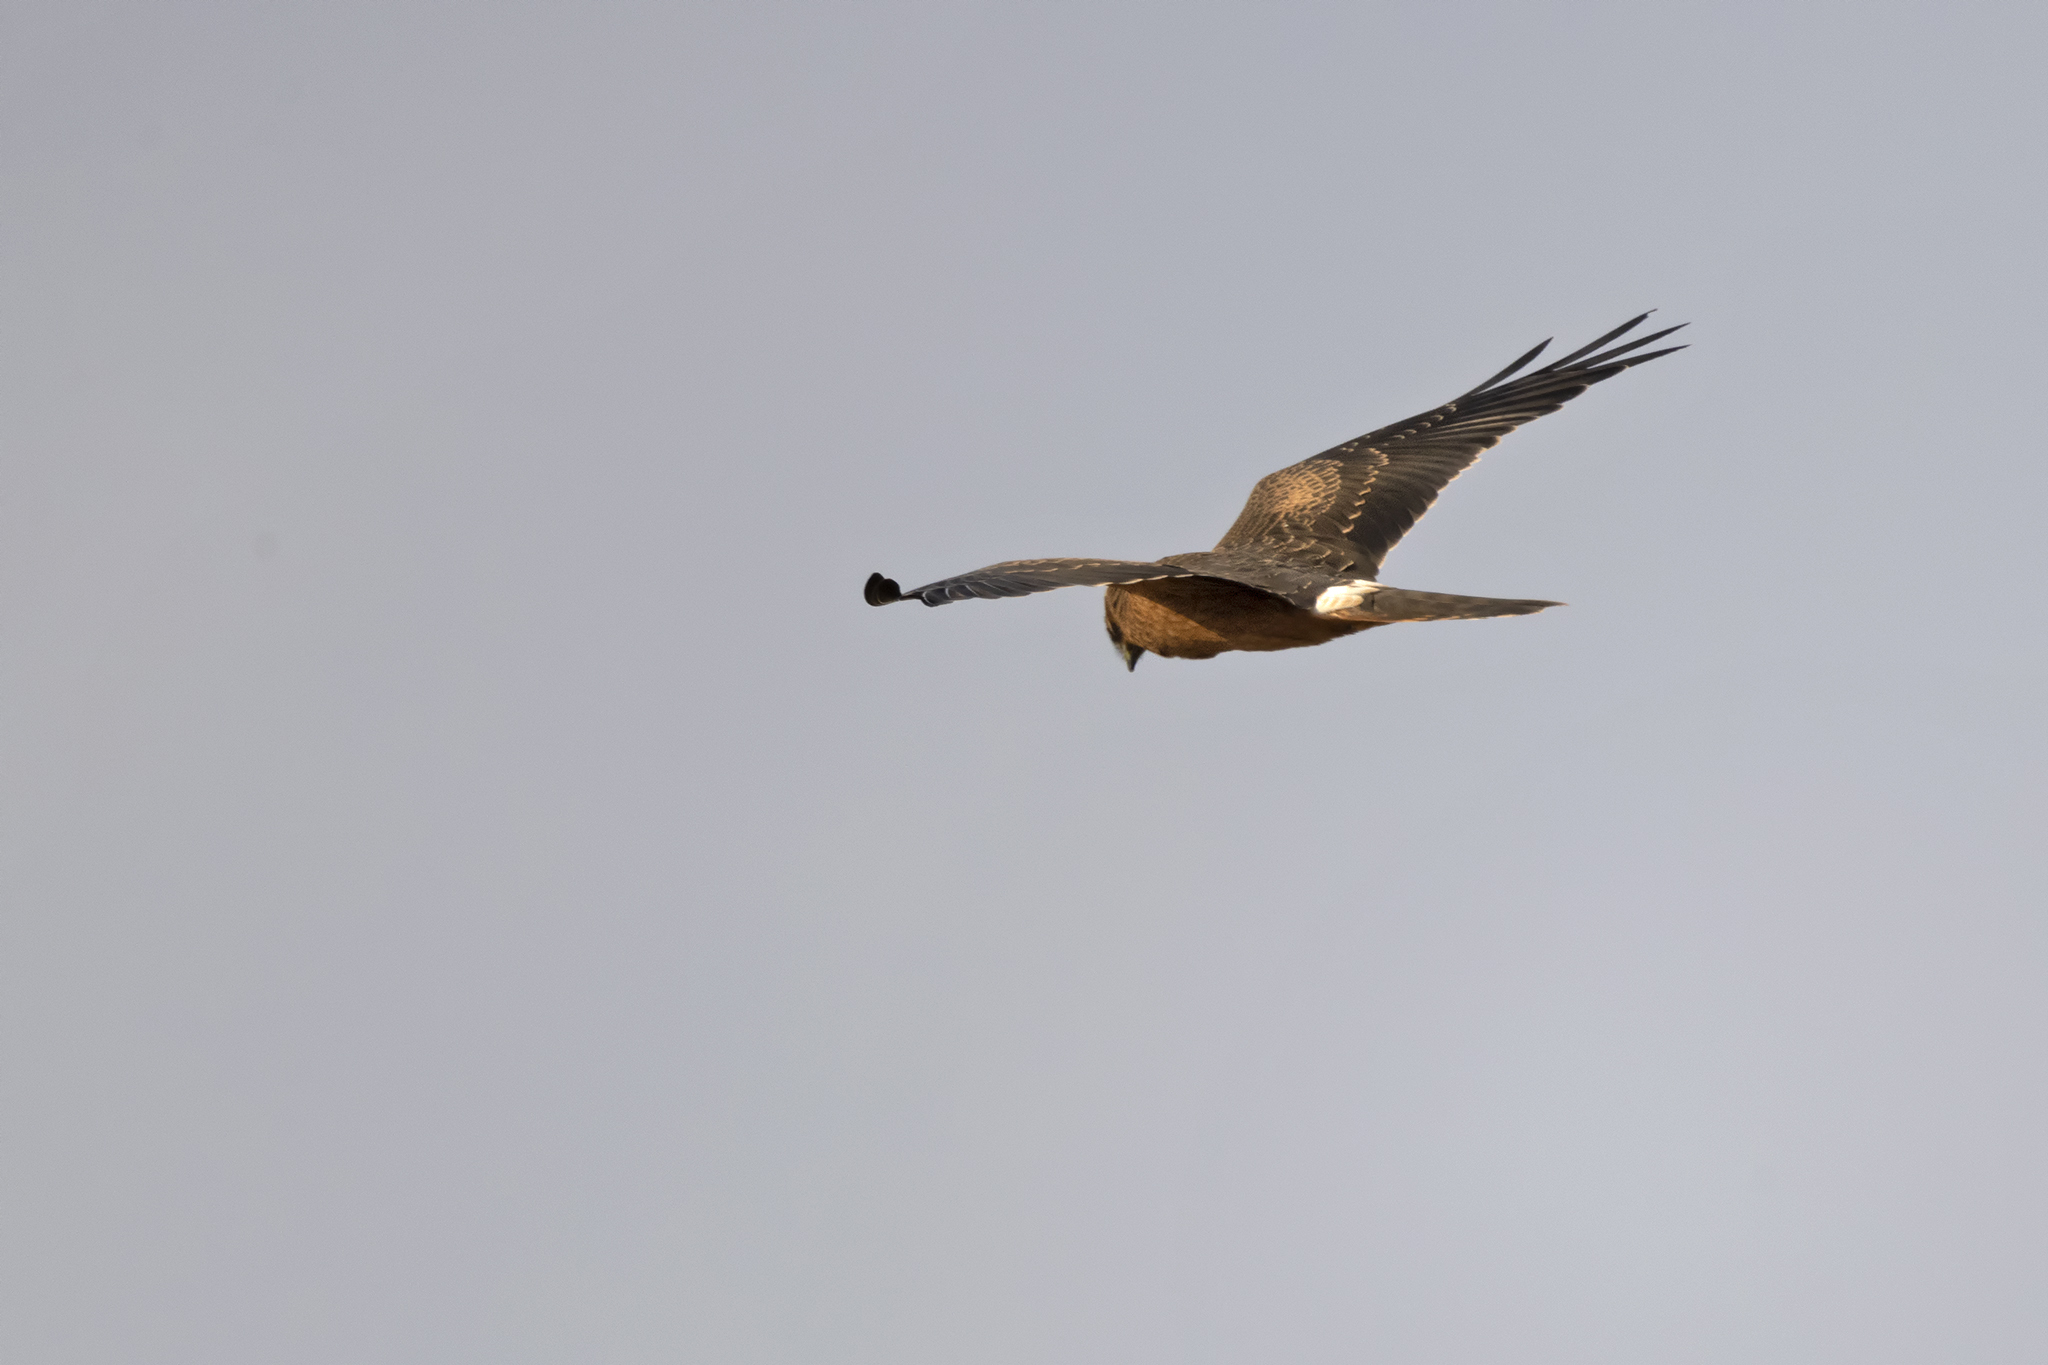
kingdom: Animalia
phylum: Chordata
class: Aves
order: Accipitriformes
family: Accipitridae
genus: Circus
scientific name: Circus pygargus
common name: Montagu's harrier
